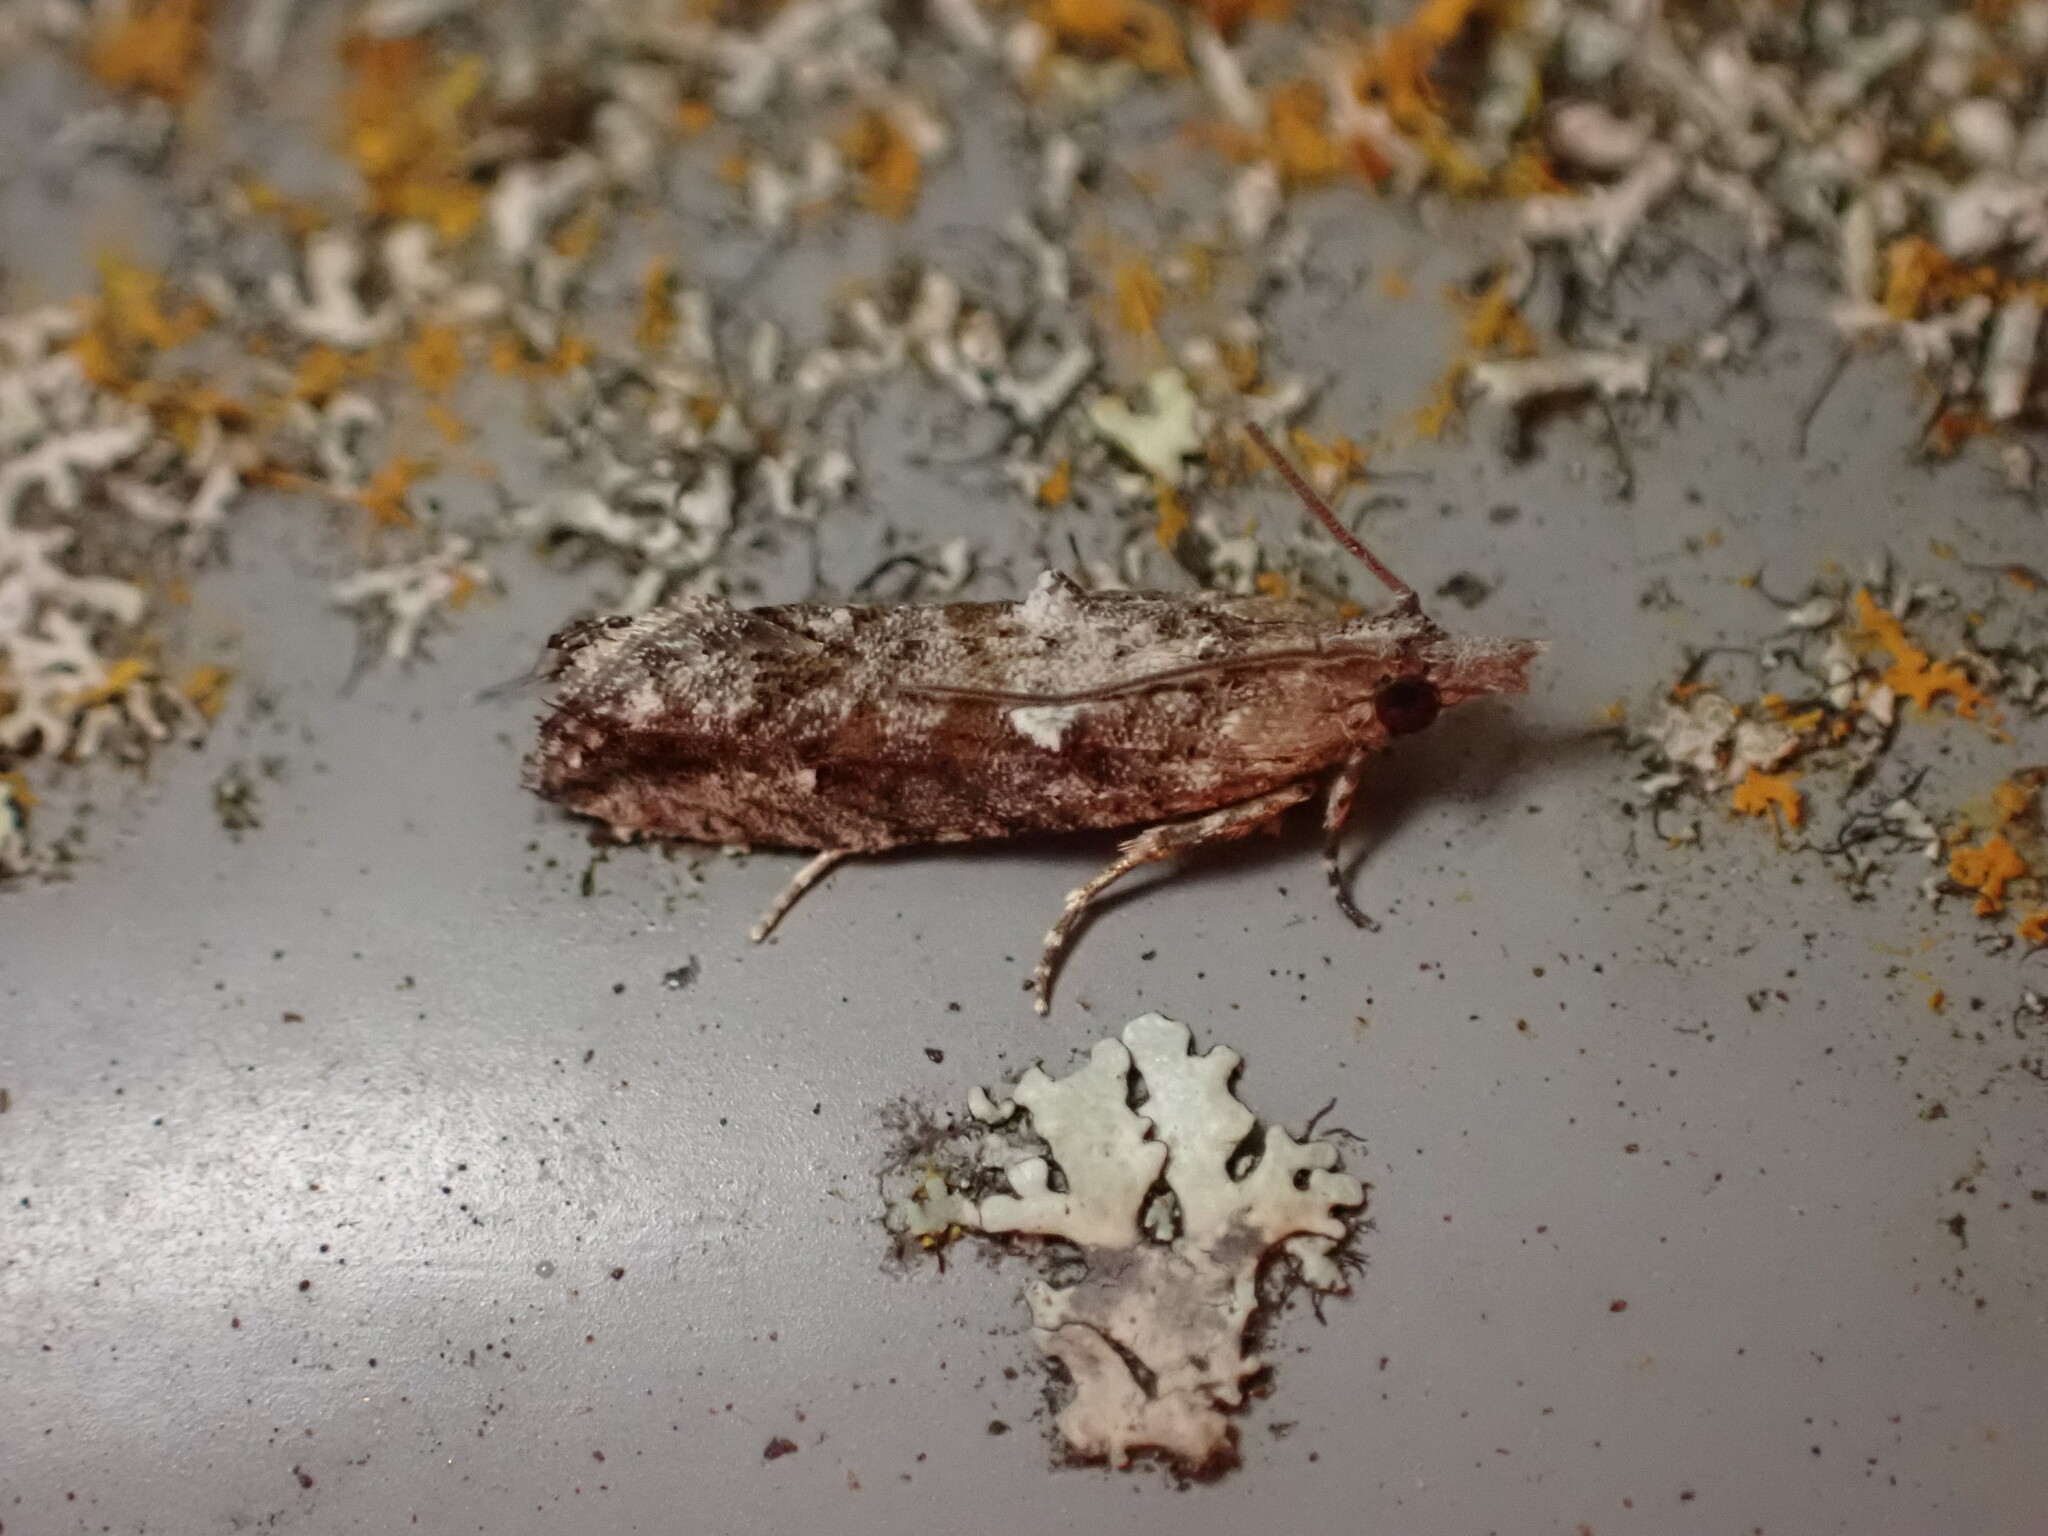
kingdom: Animalia
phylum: Arthropoda
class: Insecta
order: Lepidoptera
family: Tortricidae
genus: Strepsicrates
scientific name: Strepsicrates ejectana
